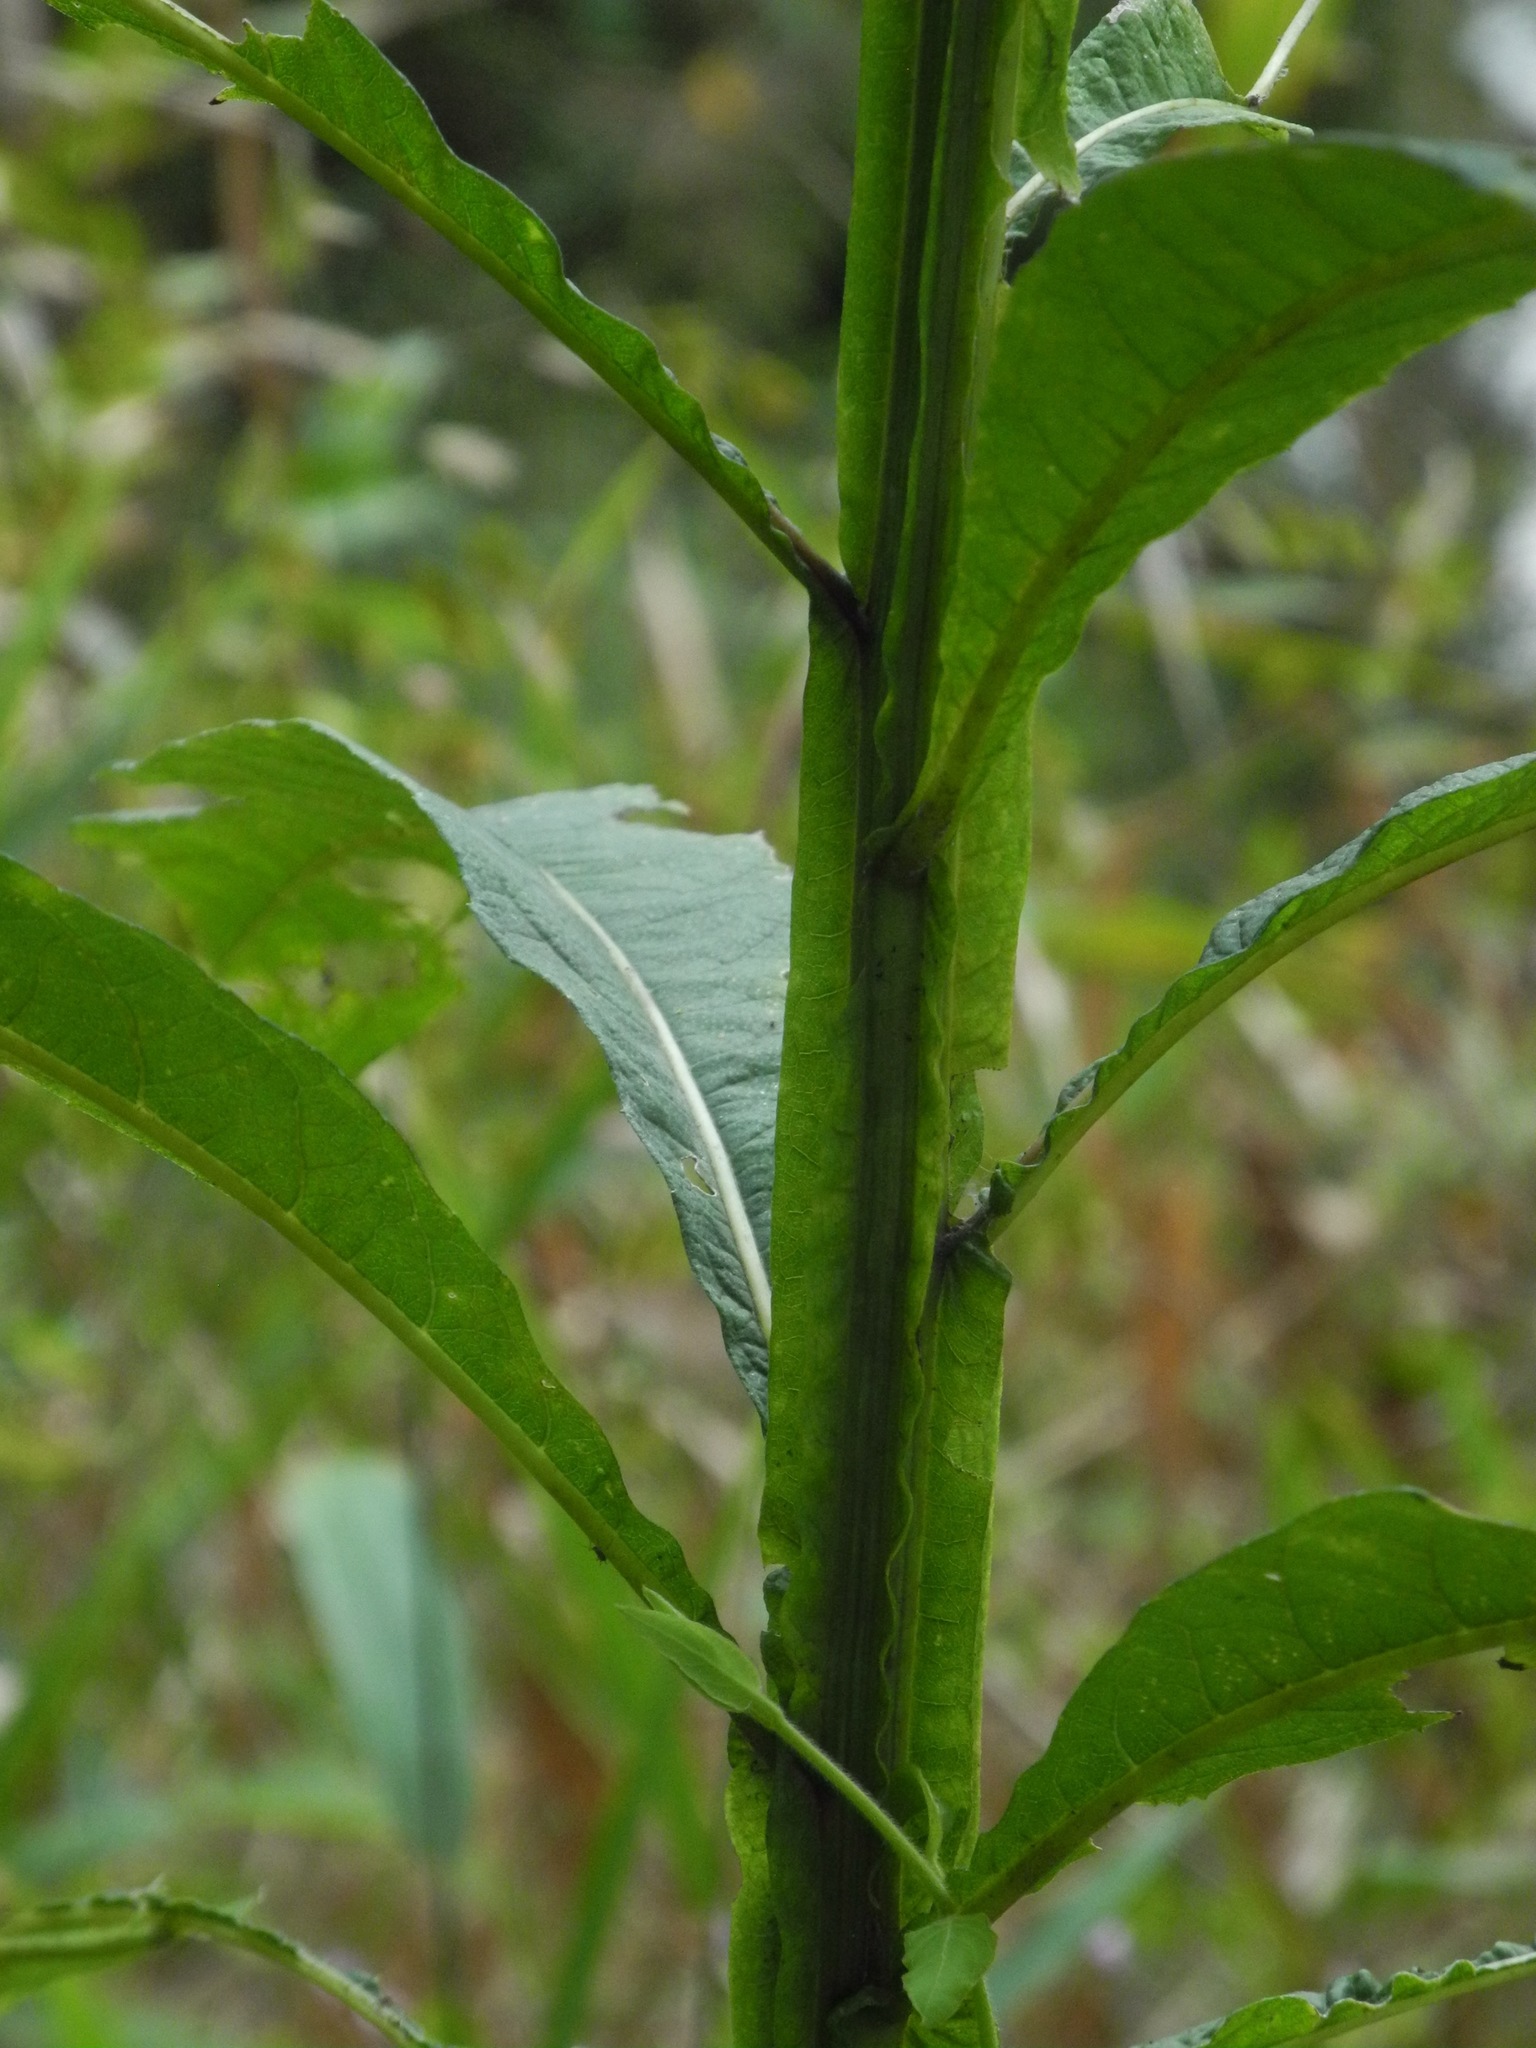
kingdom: Plantae
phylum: Tracheophyta
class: Magnoliopsida
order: Asterales
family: Asteraceae
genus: Verbesina
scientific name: Verbesina alternifolia
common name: Wingstem
